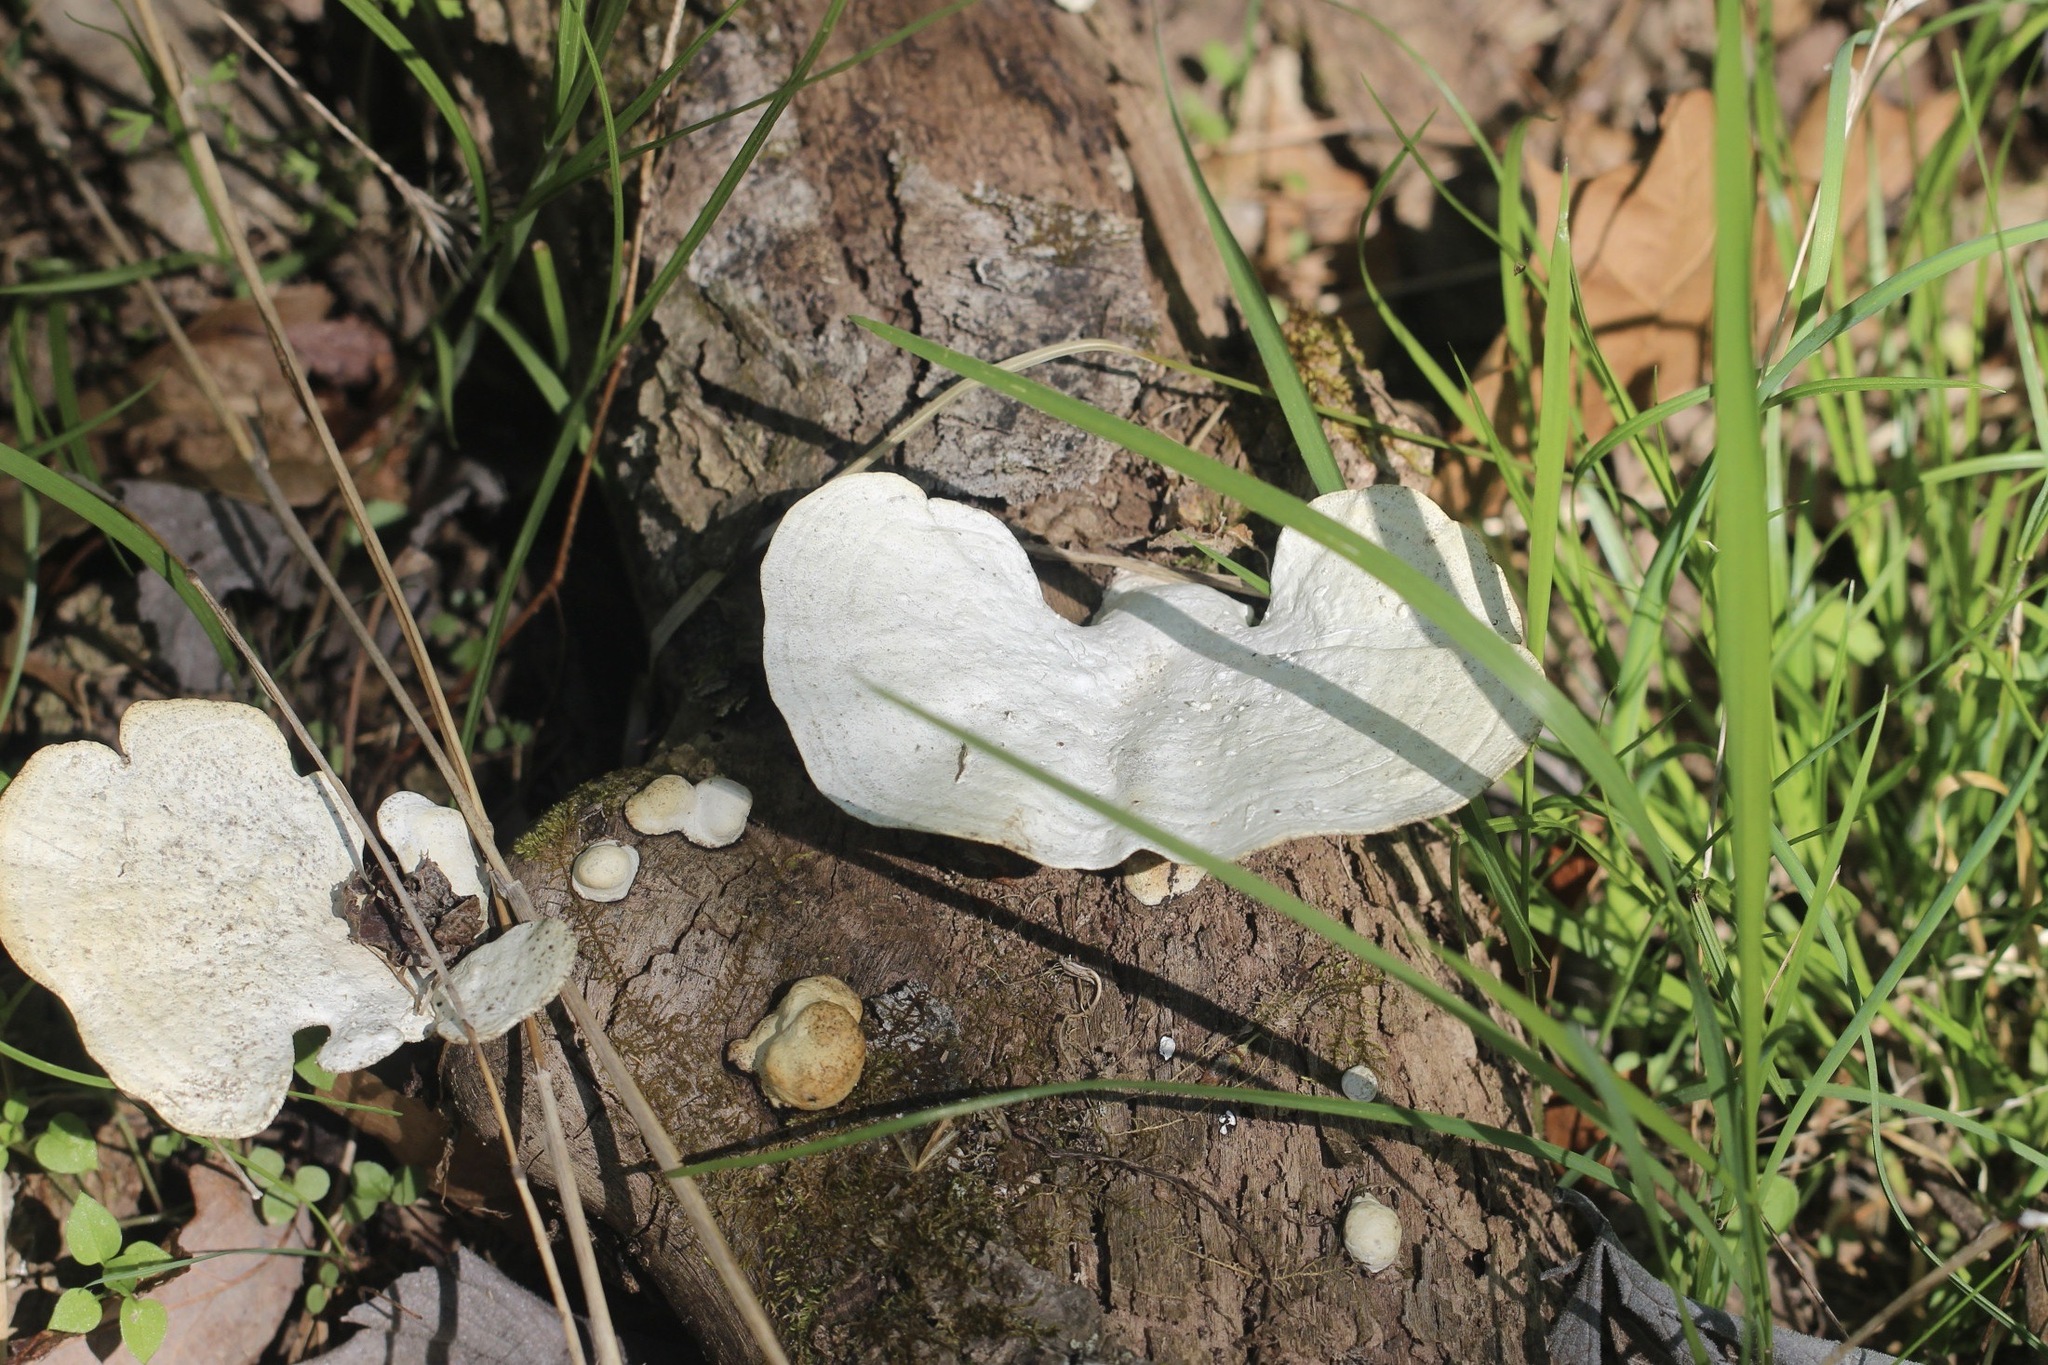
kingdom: Fungi
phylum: Basidiomycota
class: Agaricomycetes
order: Polyporales
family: Polyporaceae
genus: Trametes
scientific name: Trametes
